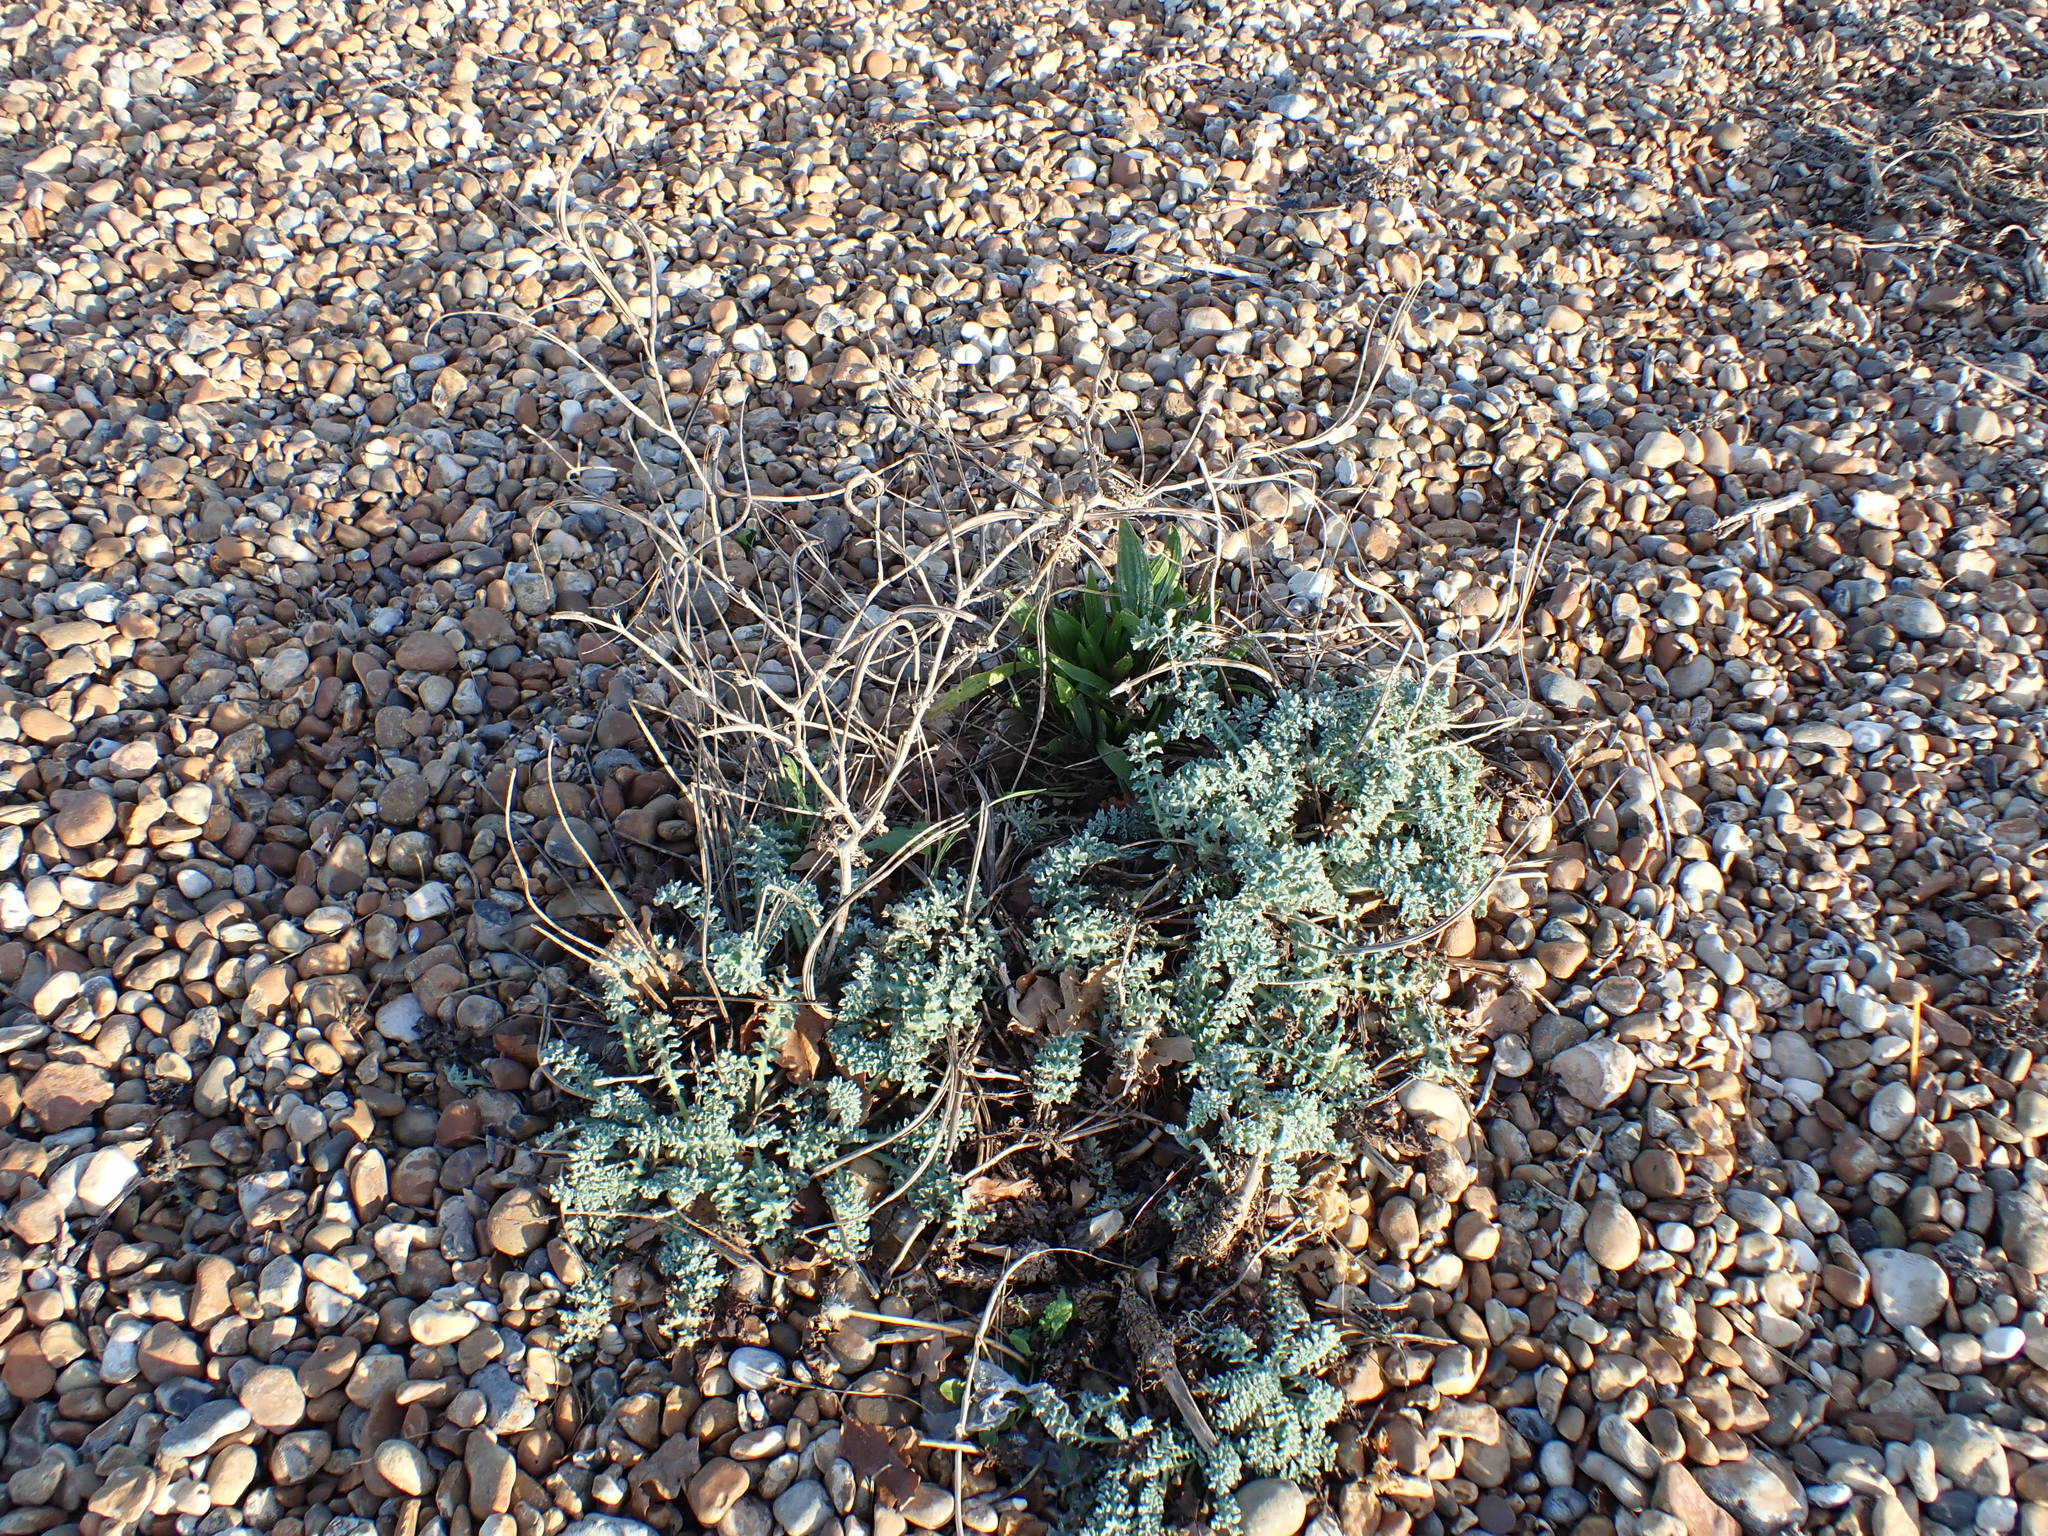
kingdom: Plantae
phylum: Tracheophyta
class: Magnoliopsida
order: Ranunculales
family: Papaveraceae
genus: Glaucium
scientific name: Glaucium flavum
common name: Yellow horned-poppy
